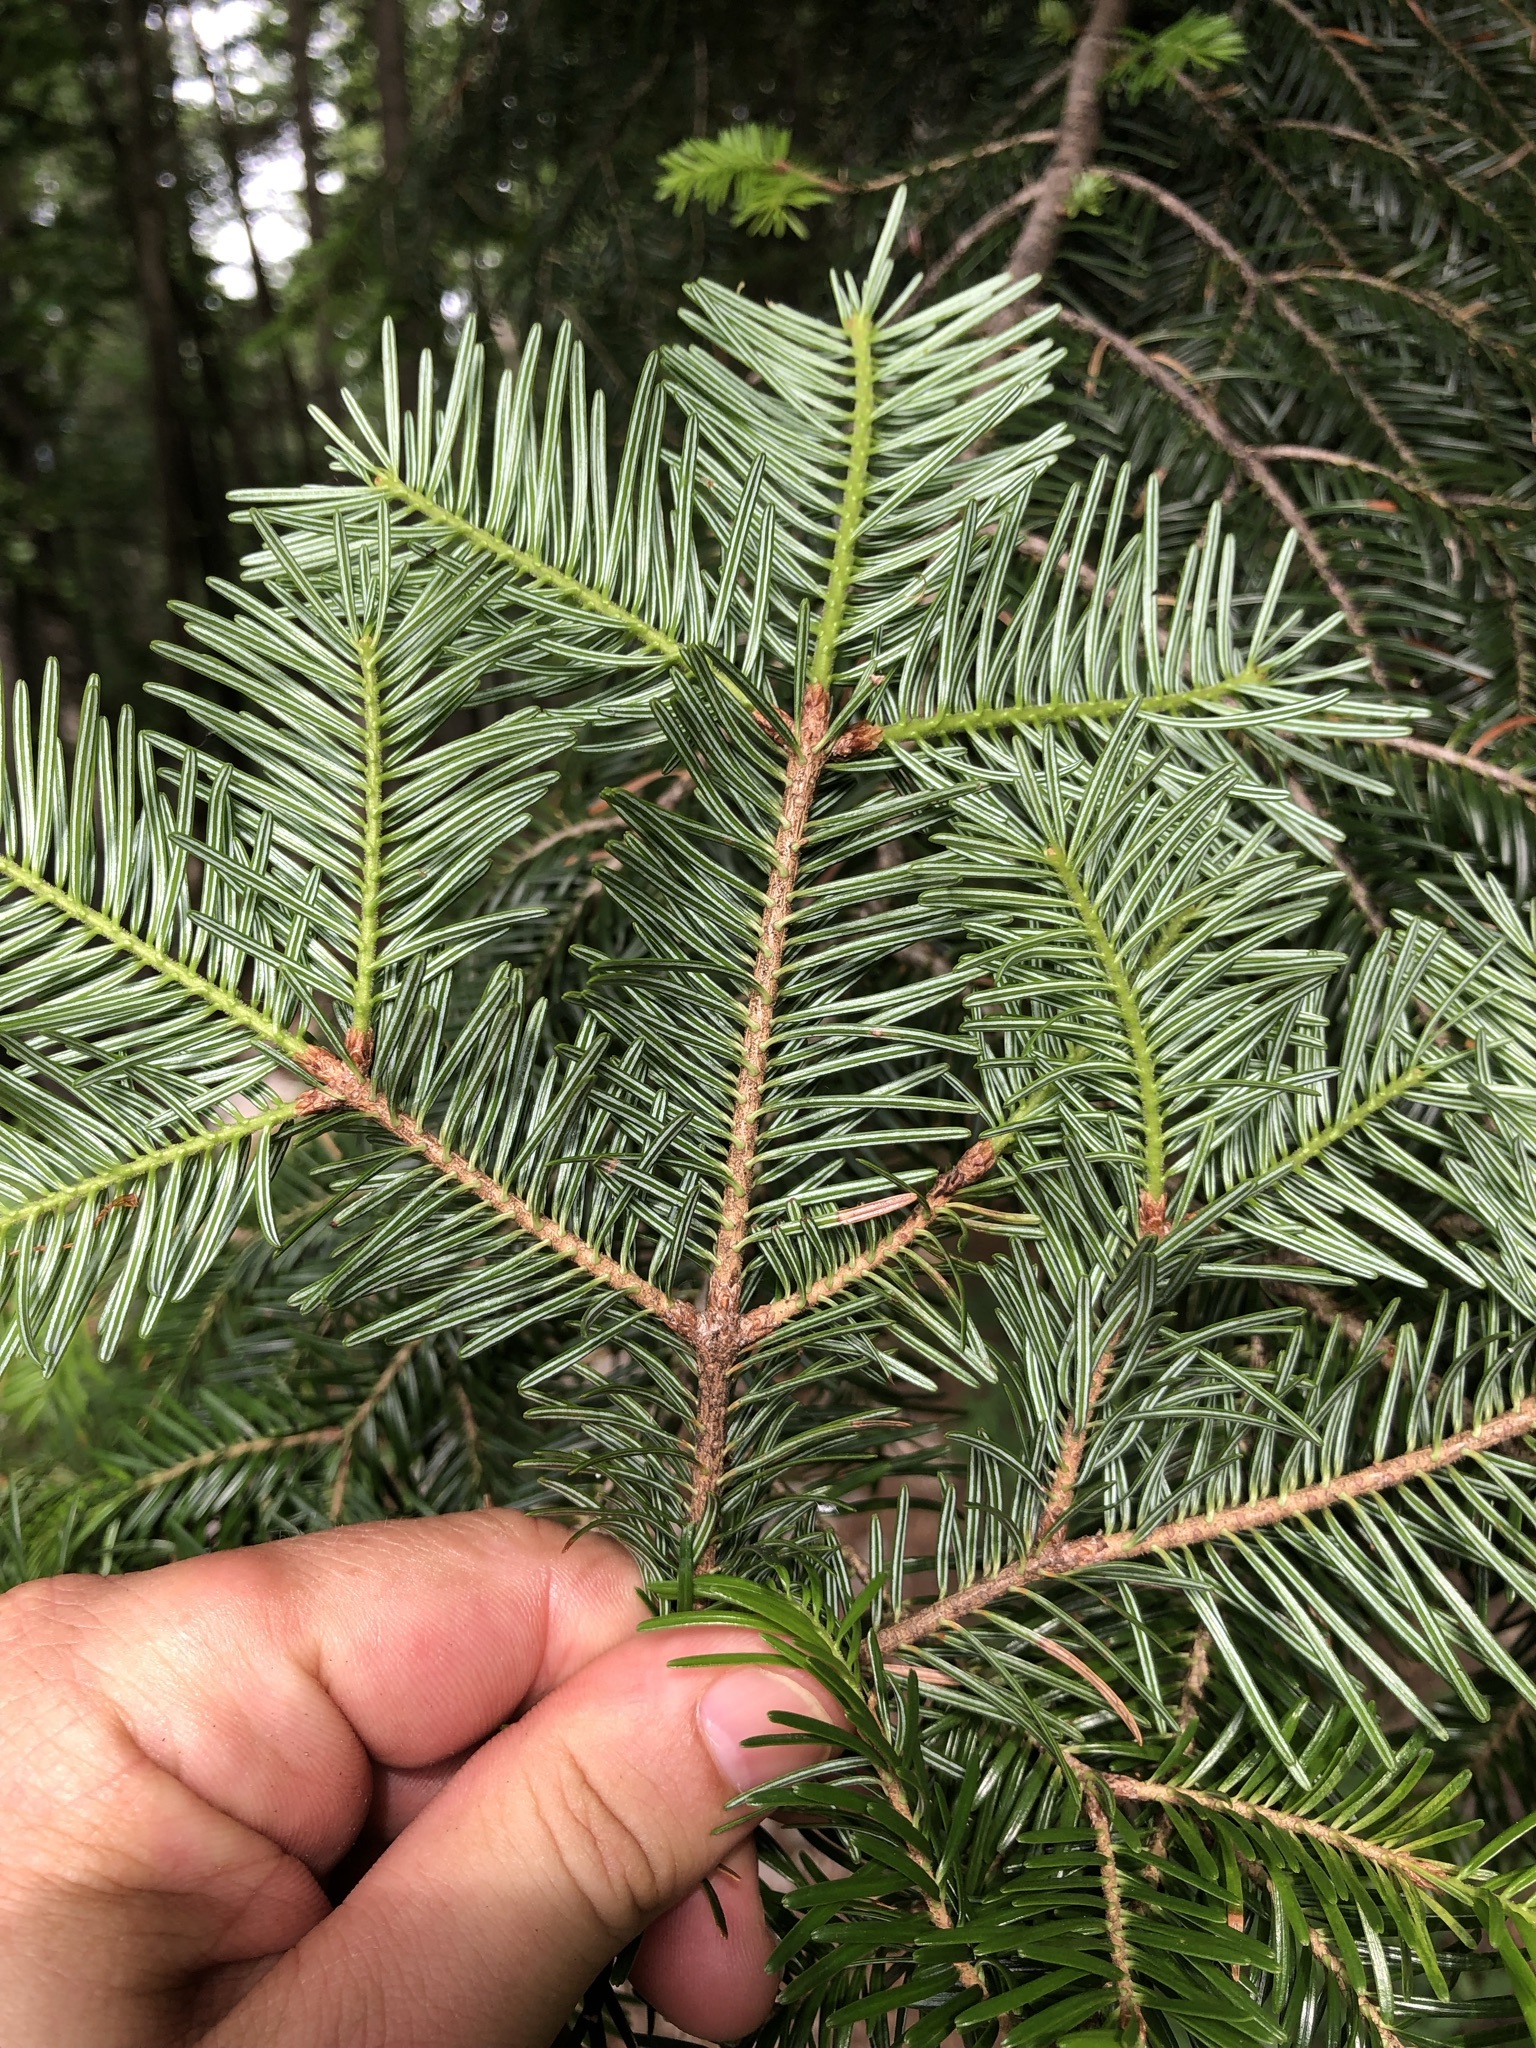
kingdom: Plantae
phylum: Tracheophyta
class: Pinopsida
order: Pinales
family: Pinaceae
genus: Abies
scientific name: Abies alba
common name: Silver fir
